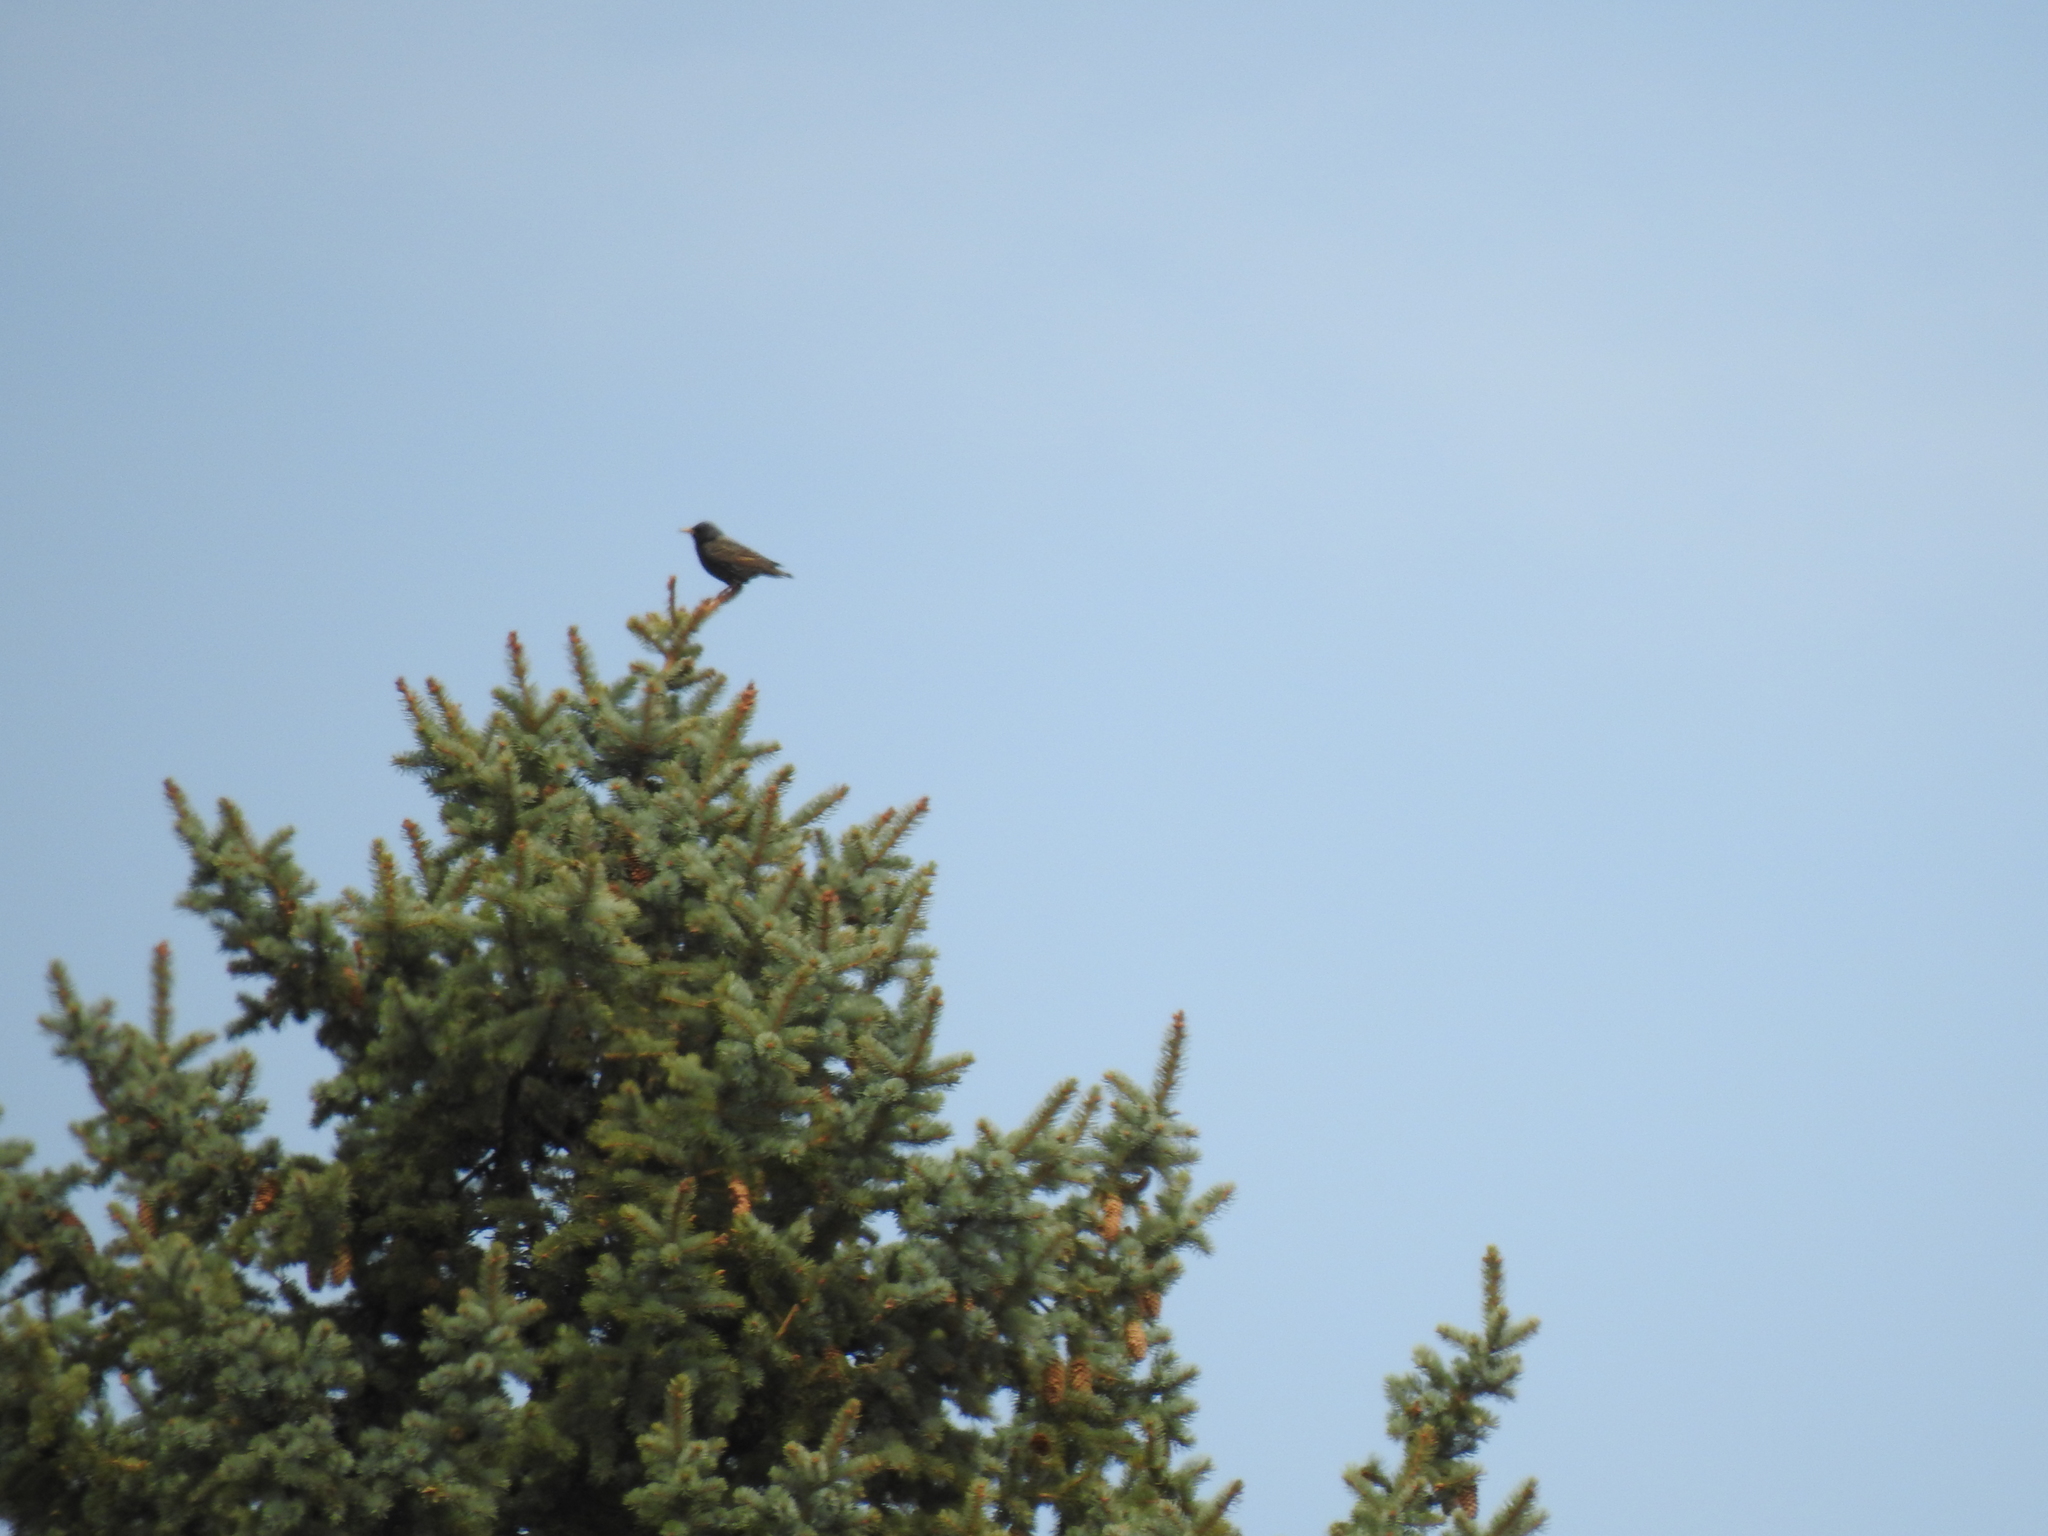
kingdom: Animalia
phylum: Chordata
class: Aves
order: Passeriformes
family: Sturnidae
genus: Sturnus
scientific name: Sturnus vulgaris
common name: Common starling
